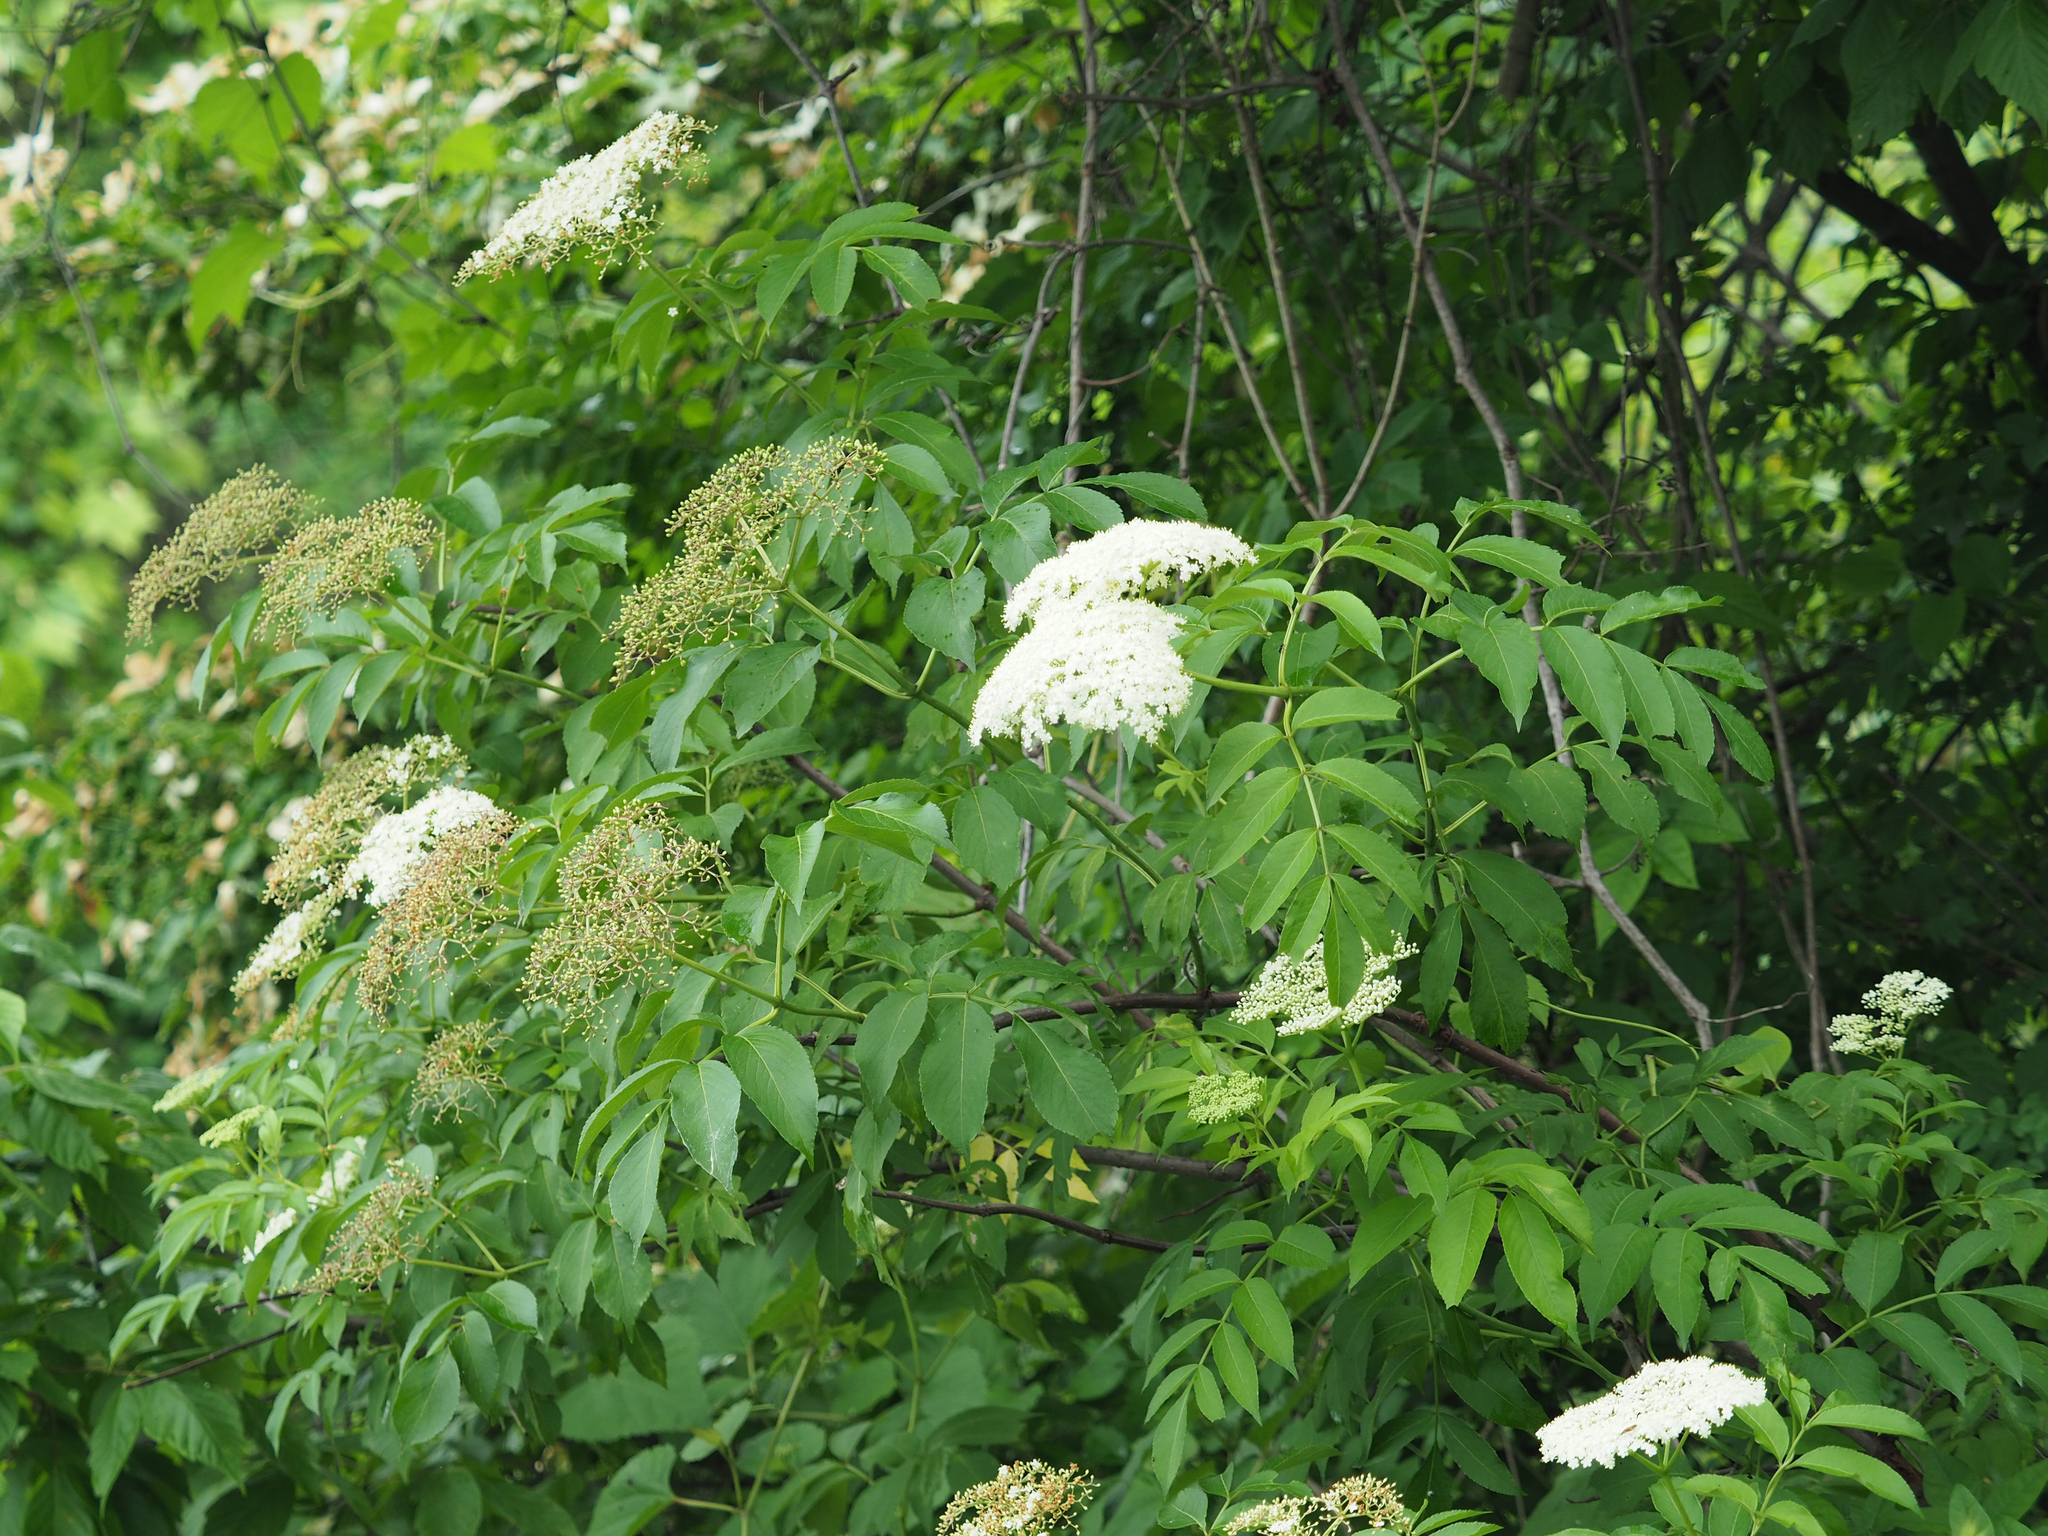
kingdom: Plantae
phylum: Tracheophyta
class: Magnoliopsida
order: Dipsacales
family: Viburnaceae
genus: Sambucus
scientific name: Sambucus canadensis
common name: American elder
